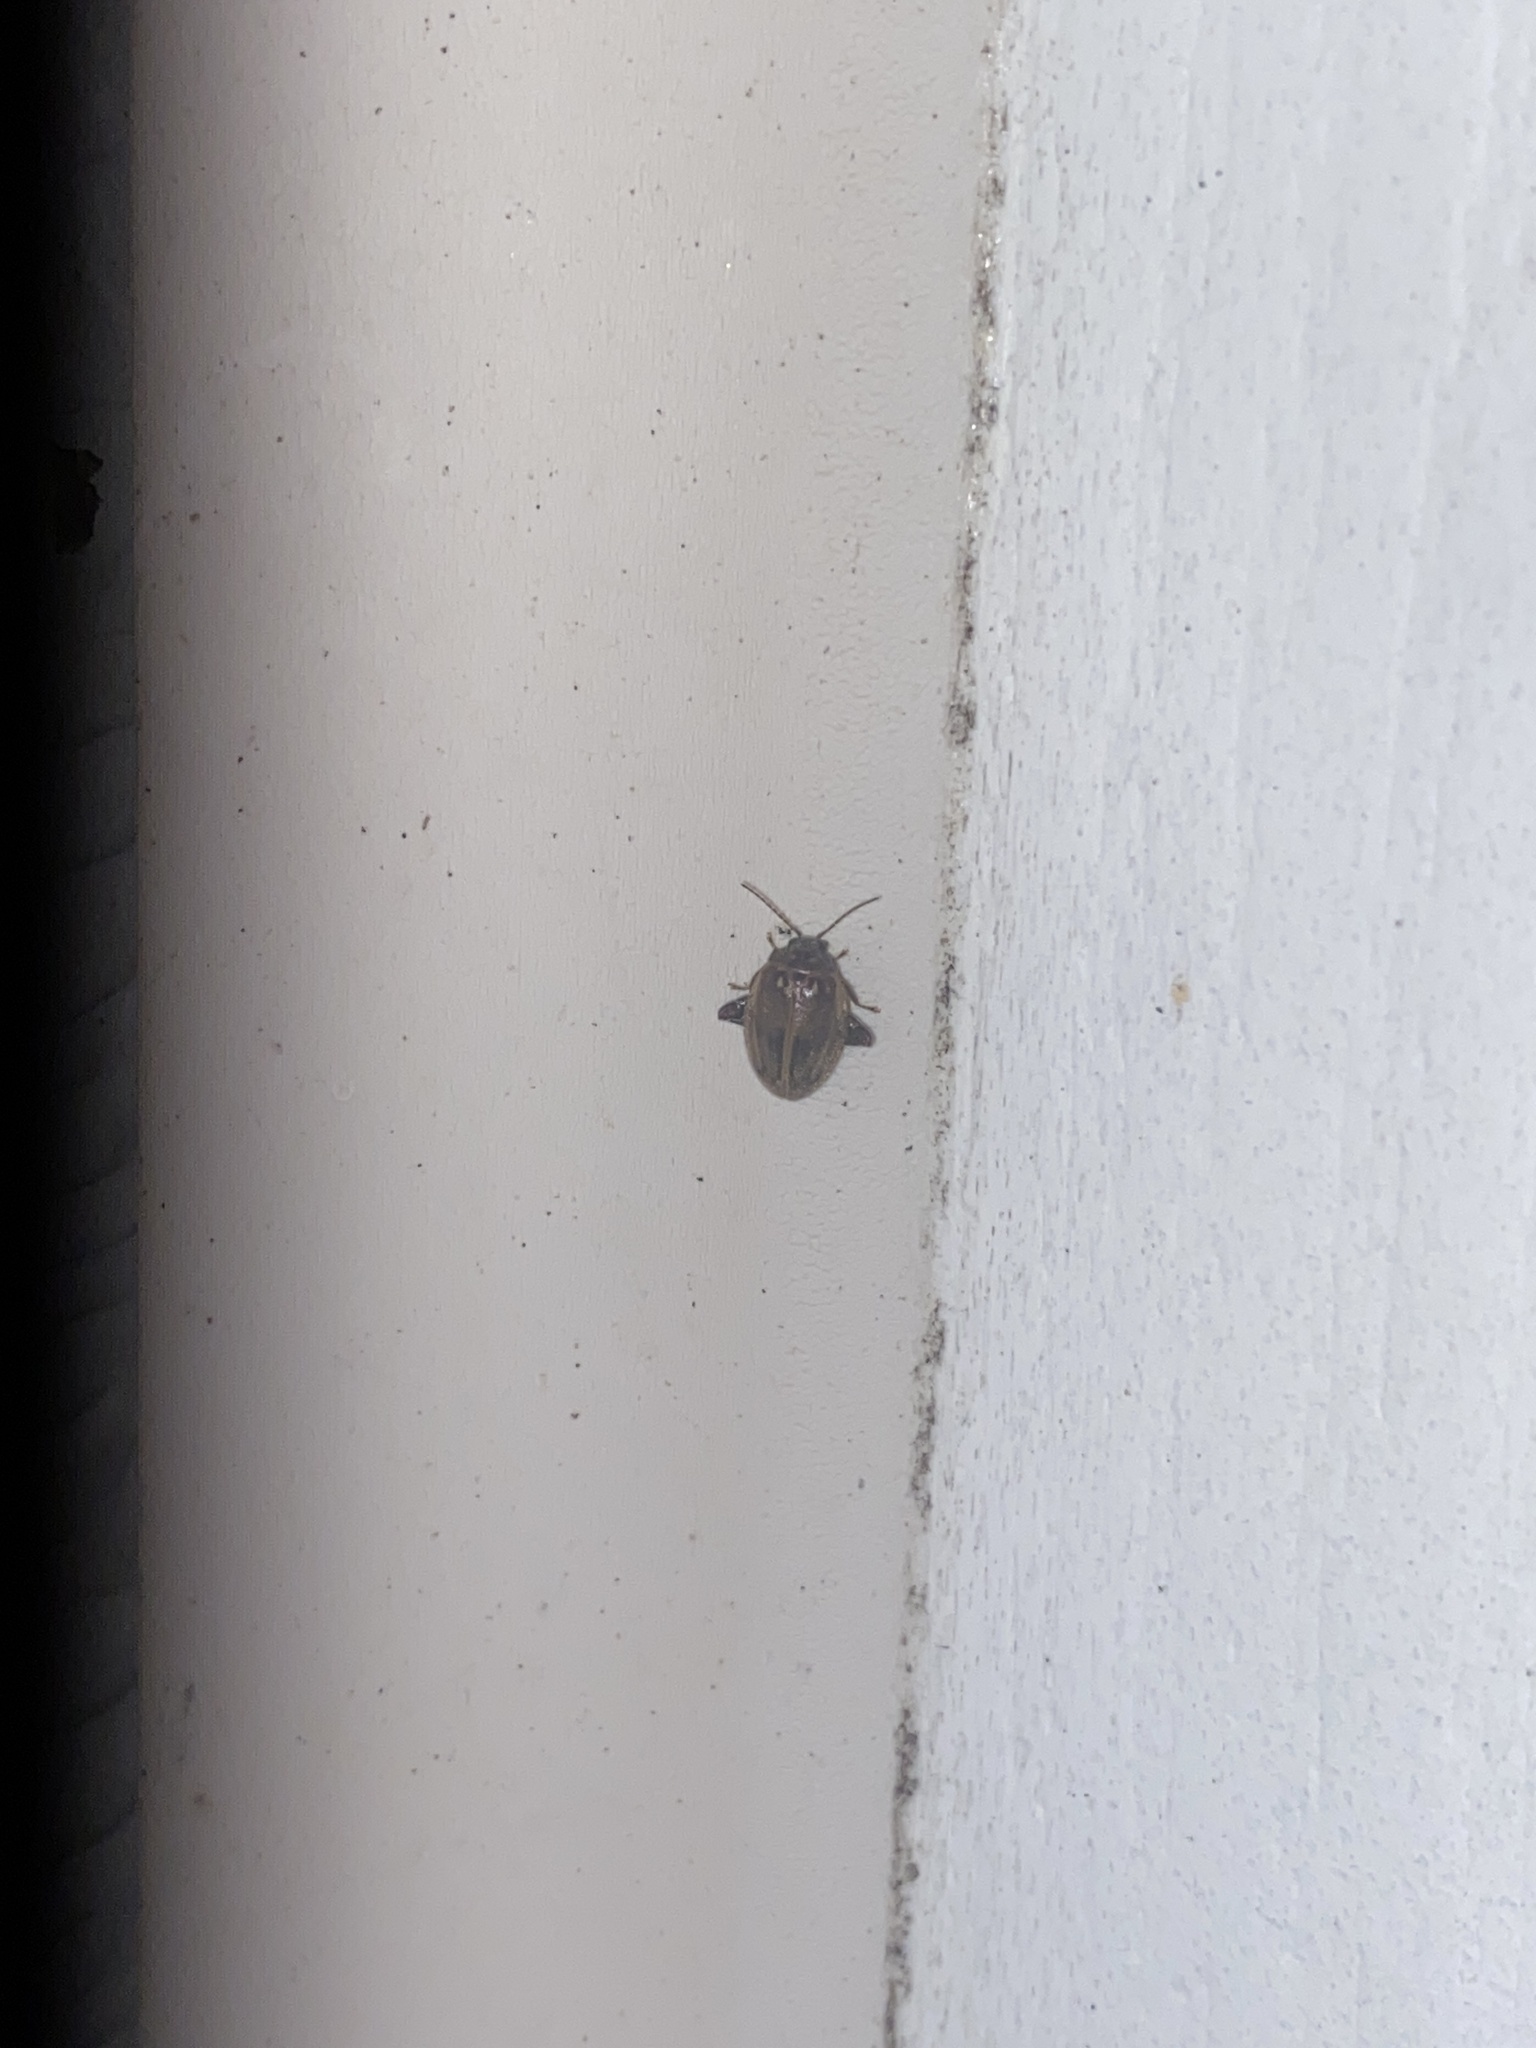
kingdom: Animalia
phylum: Arthropoda
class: Insecta
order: Coleoptera
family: Scirtidae
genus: Ora
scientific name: Ora texana
